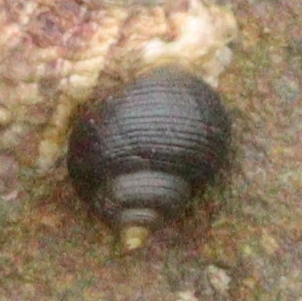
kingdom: Animalia
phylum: Mollusca
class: Gastropoda
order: Littorinimorpha
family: Littorinidae
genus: Littorina
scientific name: Littorina littorea
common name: Common periwinkle
